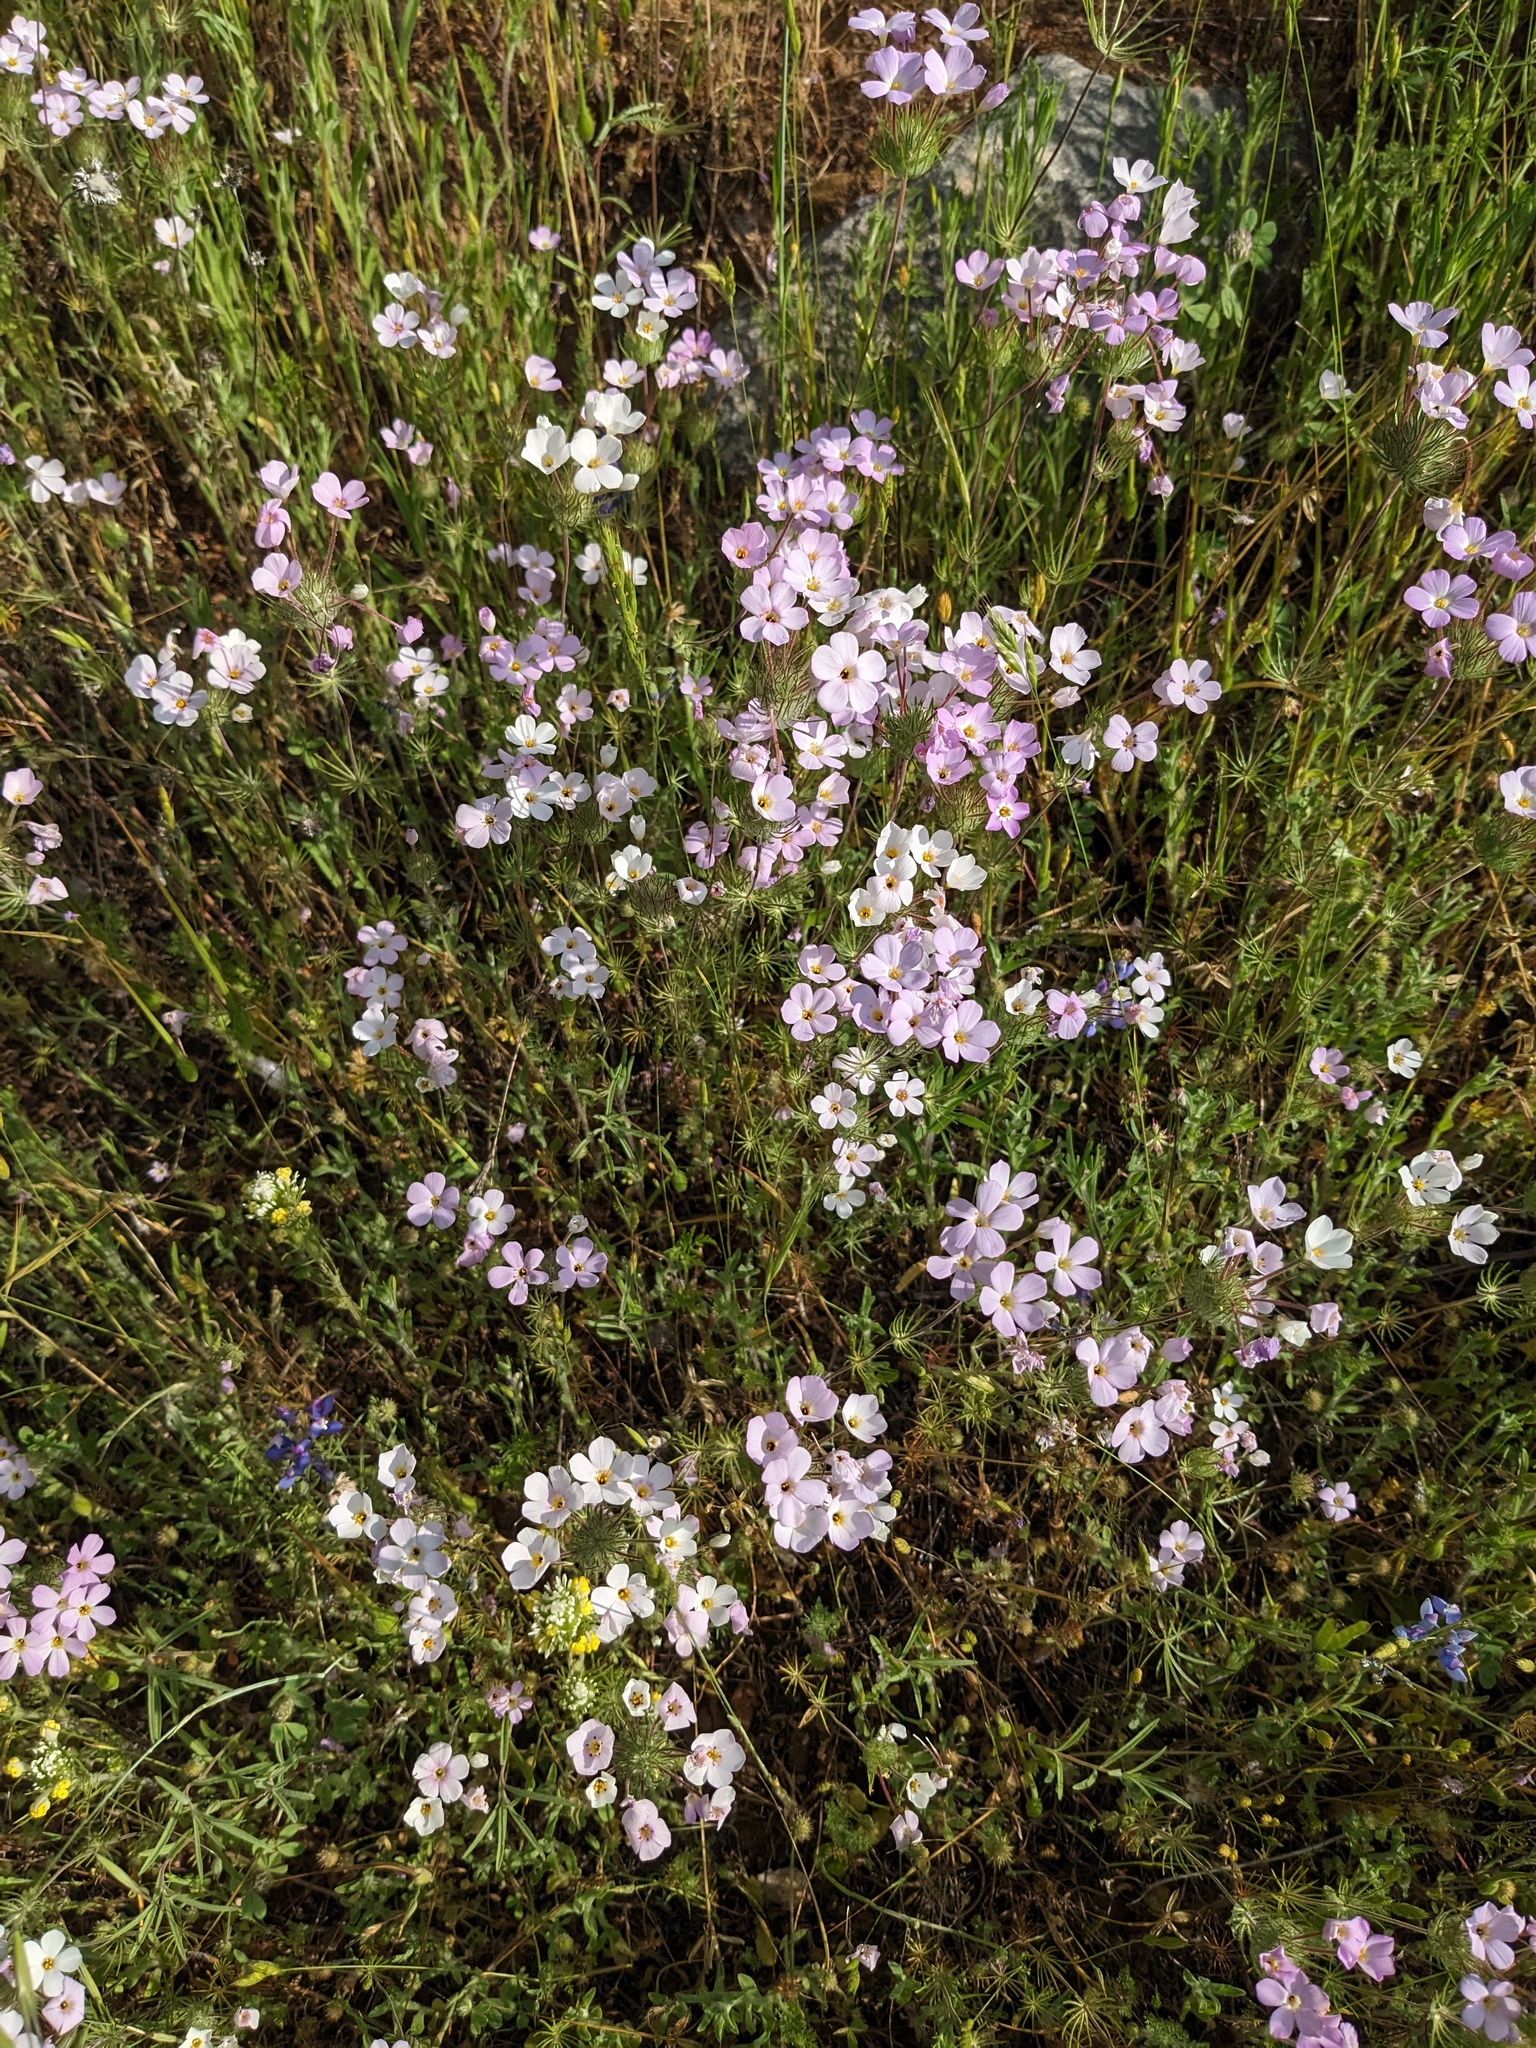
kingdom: Plantae
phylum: Tracheophyta
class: Magnoliopsida
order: Ericales
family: Polemoniaceae
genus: Leptosiphon
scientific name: Leptosiphon montanus
